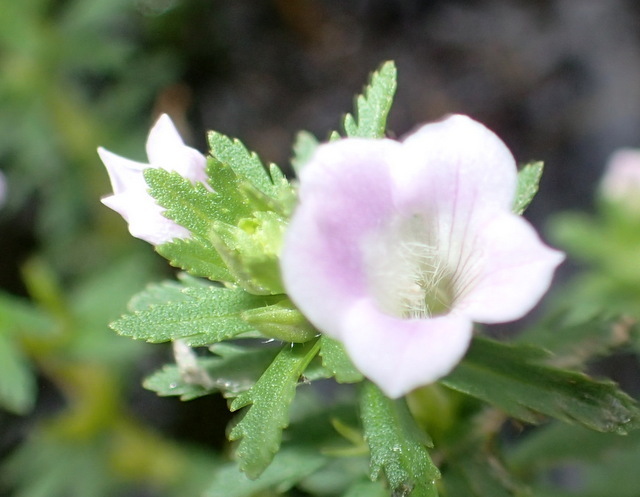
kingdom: Plantae
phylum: Tracheophyta
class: Magnoliopsida
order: Lamiales
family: Plantaginaceae
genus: Limnophila
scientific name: Limnophila sessiliflora
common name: Asian marshweed
